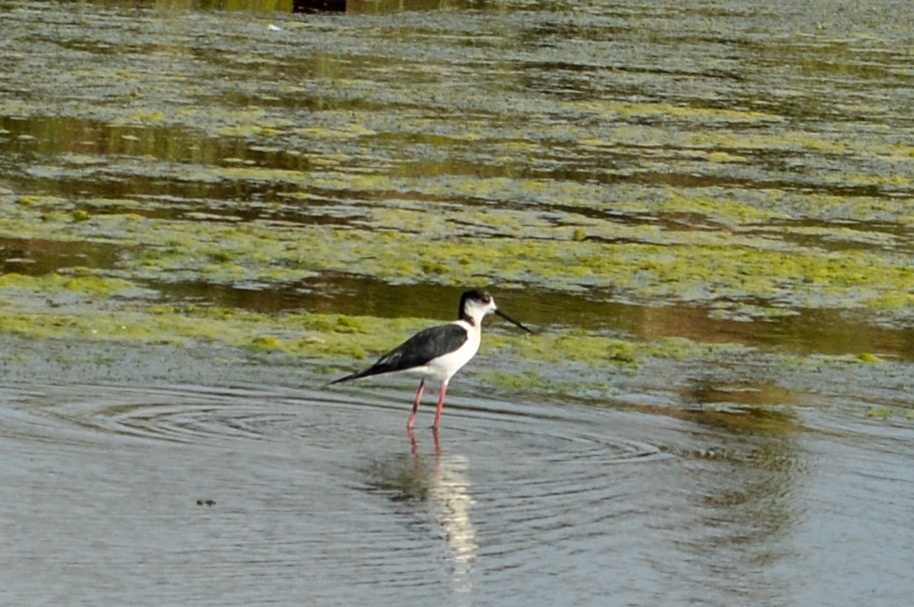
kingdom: Animalia
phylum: Chordata
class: Aves
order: Charadriiformes
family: Recurvirostridae
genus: Himantopus
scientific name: Himantopus himantopus
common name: Black-winged stilt
